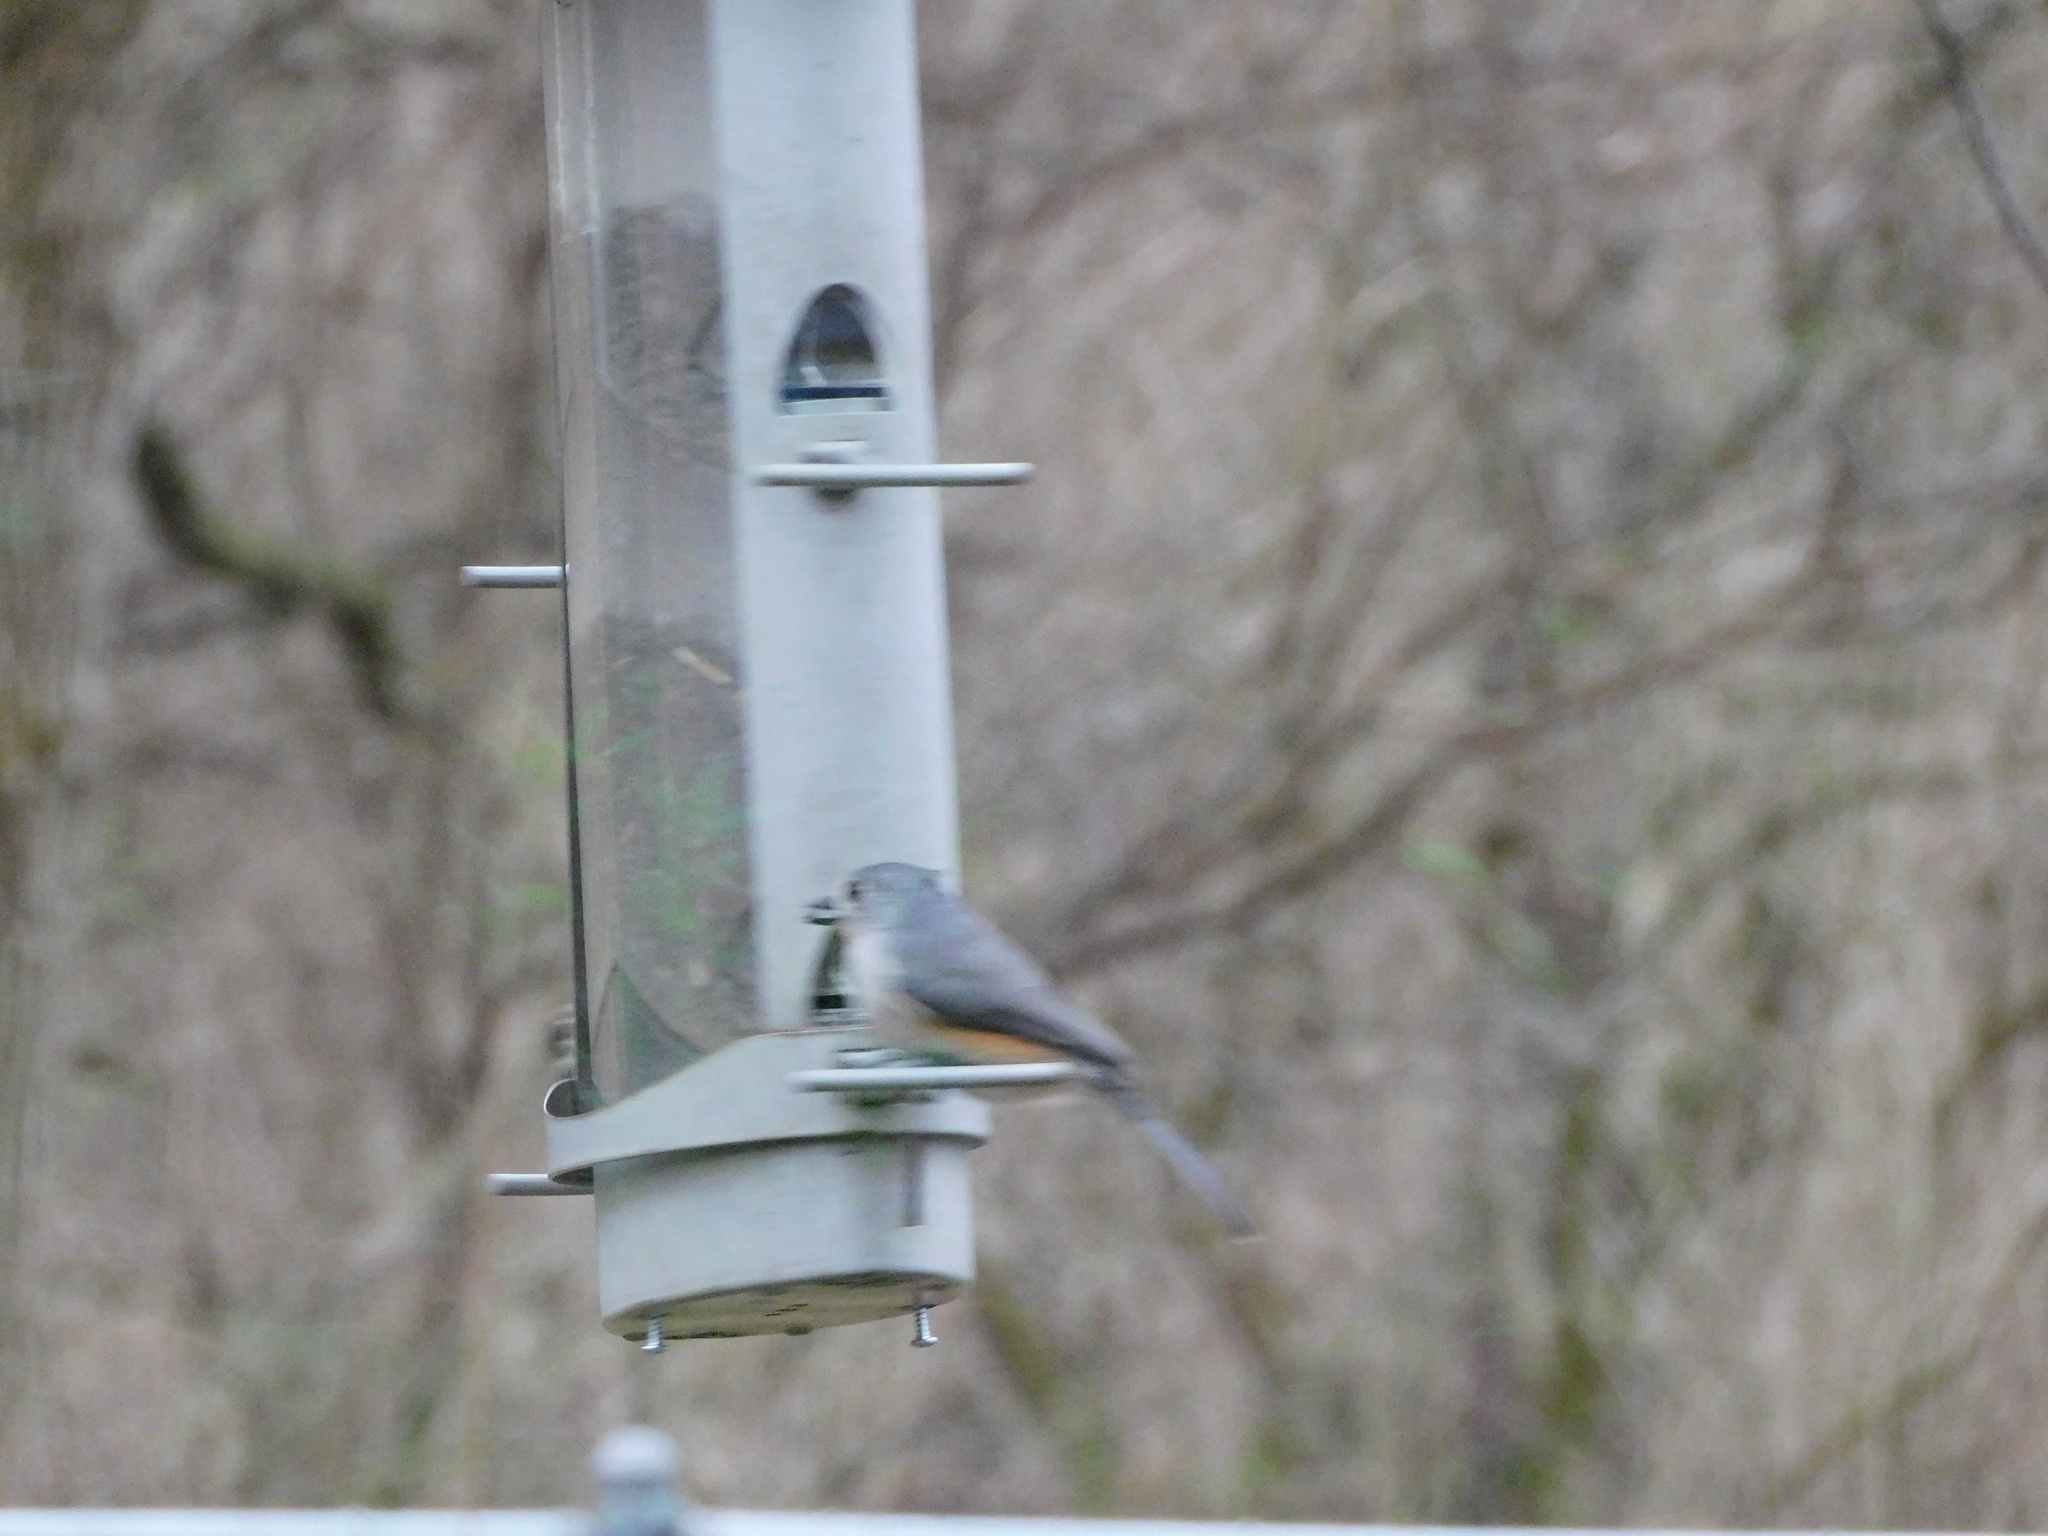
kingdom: Animalia
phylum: Chordata
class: Aves
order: Passeriformes
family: Paridae
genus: Baeolophus
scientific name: Baeolophus bicolor
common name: Tufted titmouse
